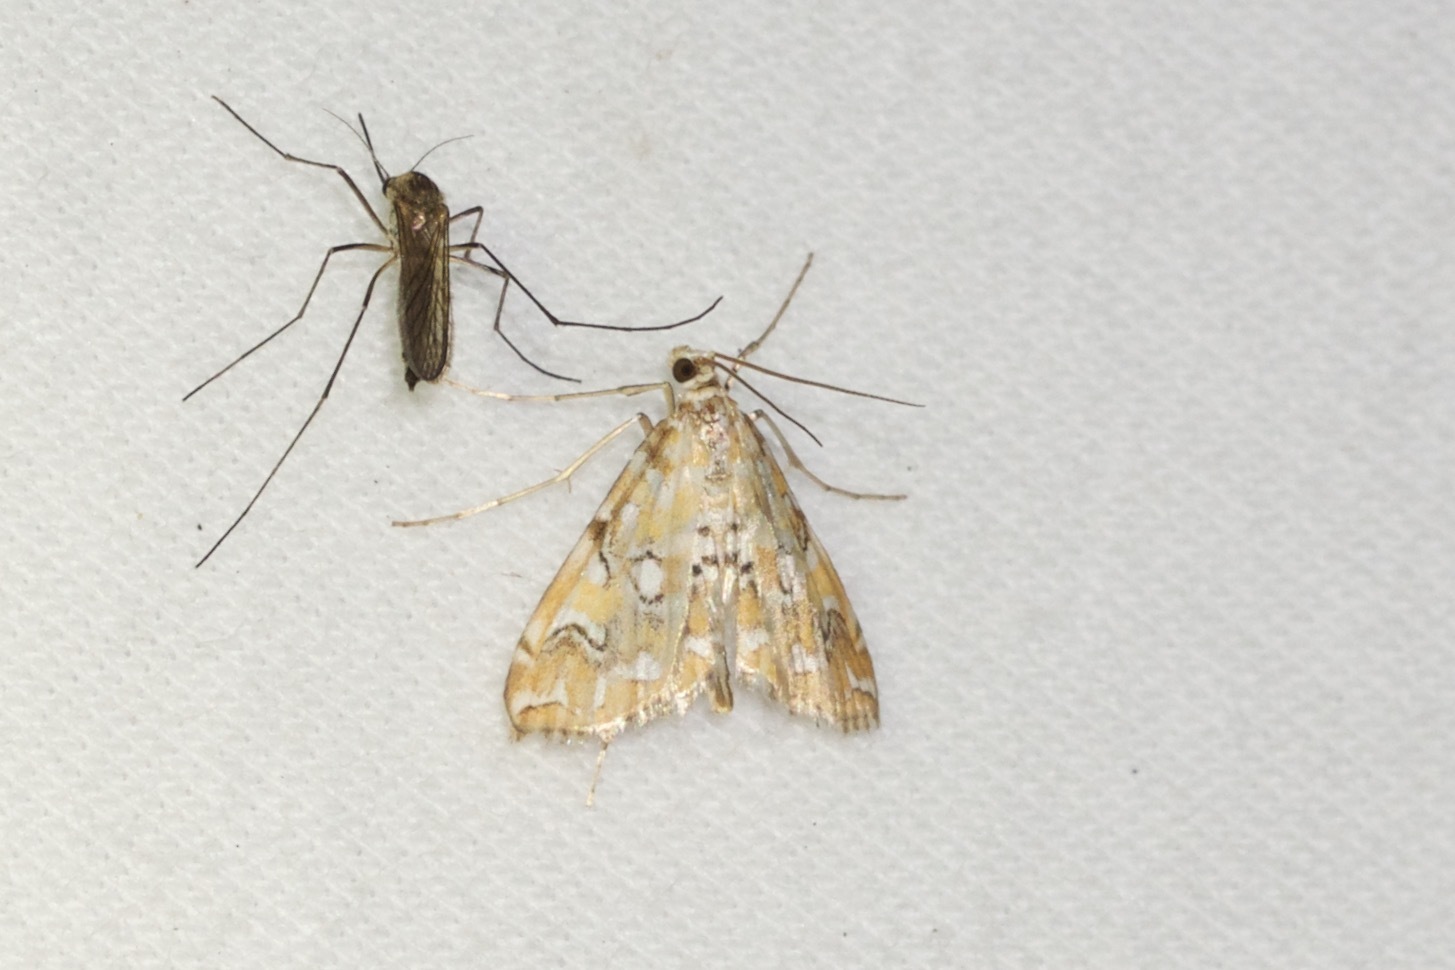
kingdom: Animalia
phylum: Arthropoda
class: Insecta
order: Lepidoptera
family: Crambidae
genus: Elophila
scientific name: Elophila icciusalis
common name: Pondside pyralid moth
